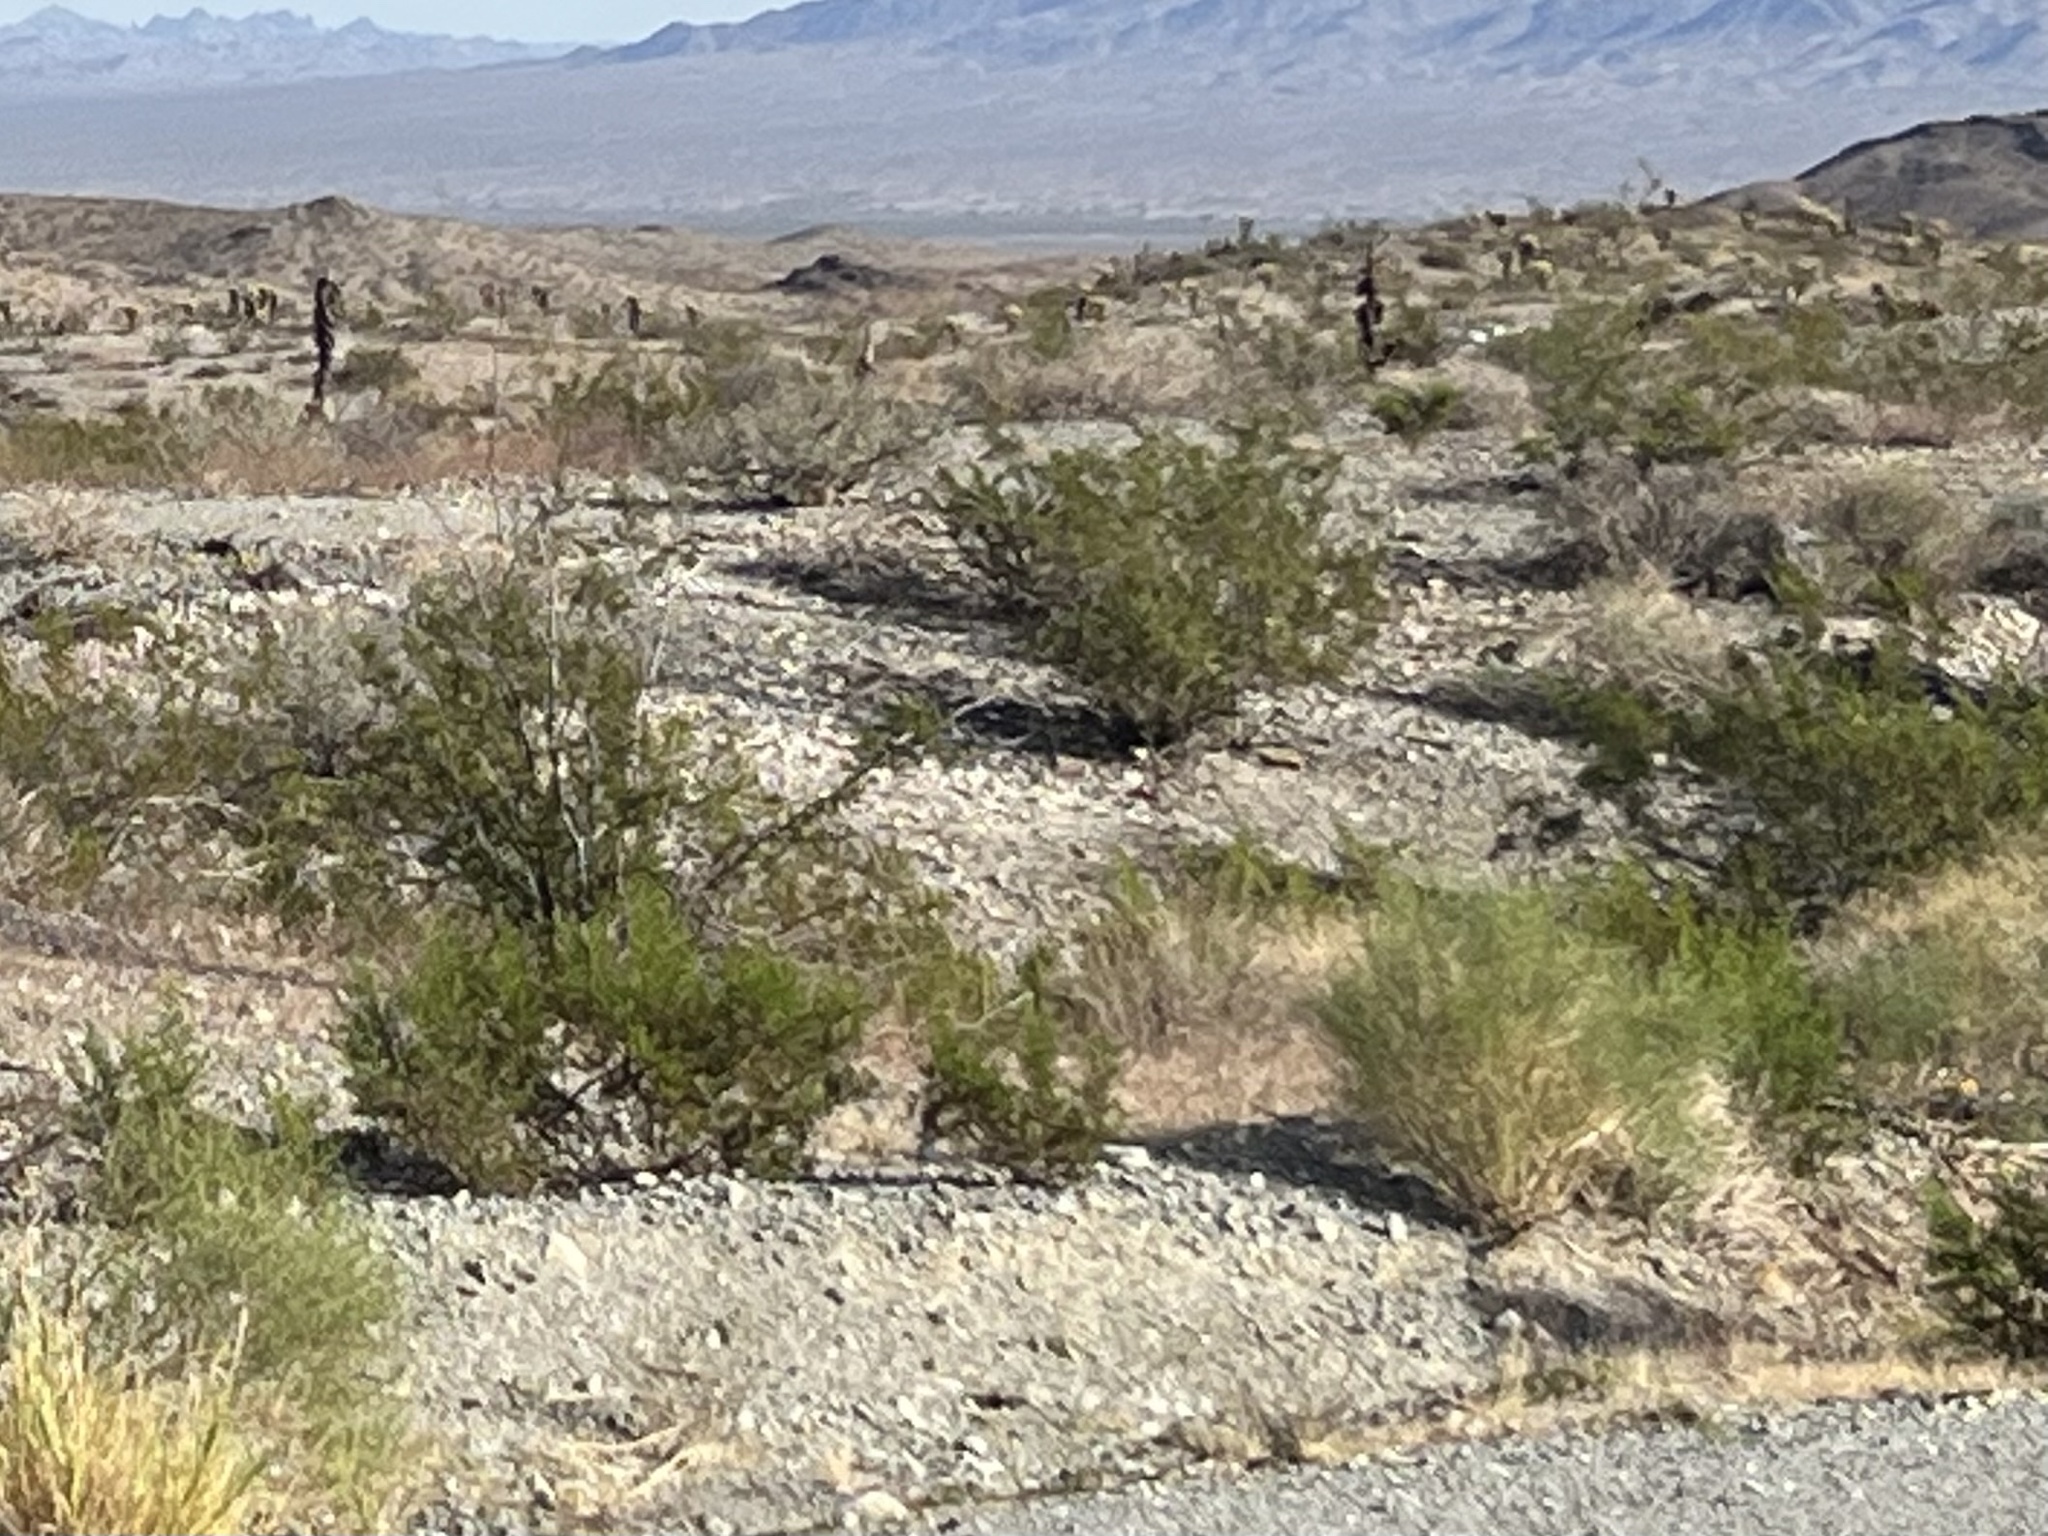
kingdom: Plantae
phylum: Tracheophyta
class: Magnoliopsida
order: Zygophyllales
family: Zygophyllaceae
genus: Larrea
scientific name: Larrea tridentata
